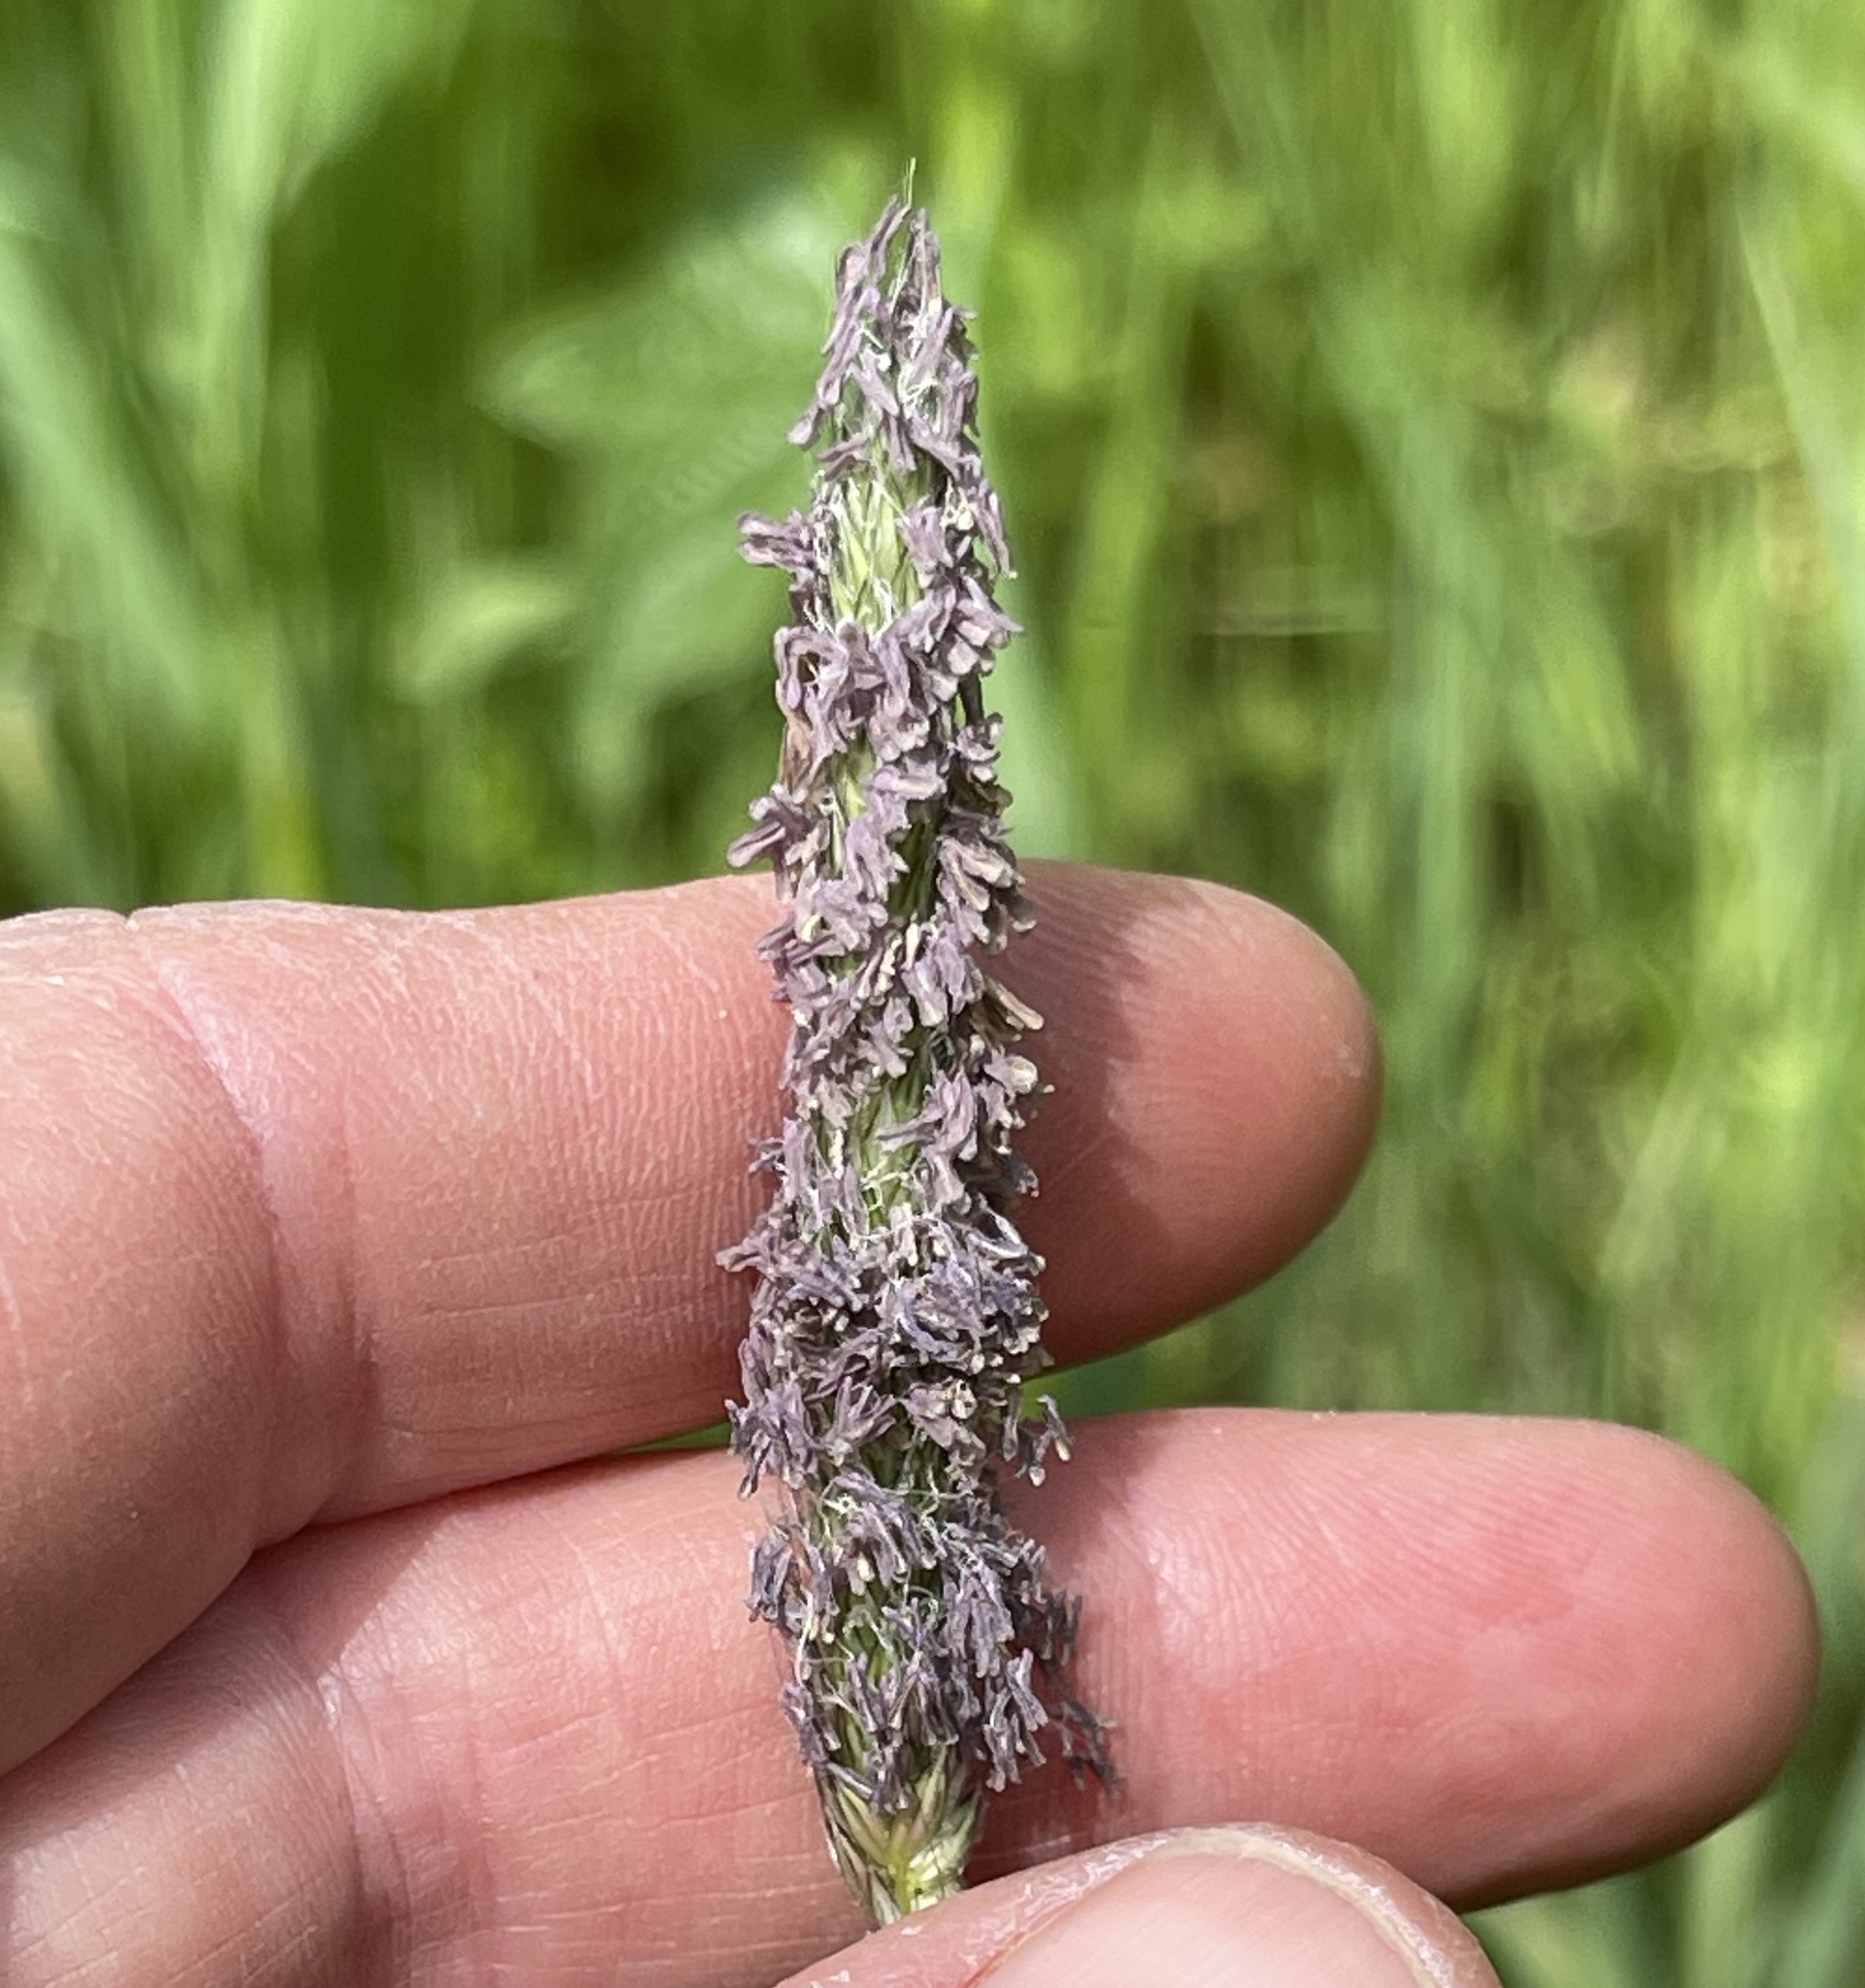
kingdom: Plantae
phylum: Tracheophyta
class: Liliopsida
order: Poales
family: Poaceae
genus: Alopecurus
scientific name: Alopecurus pratensis
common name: Meadow foxtail
